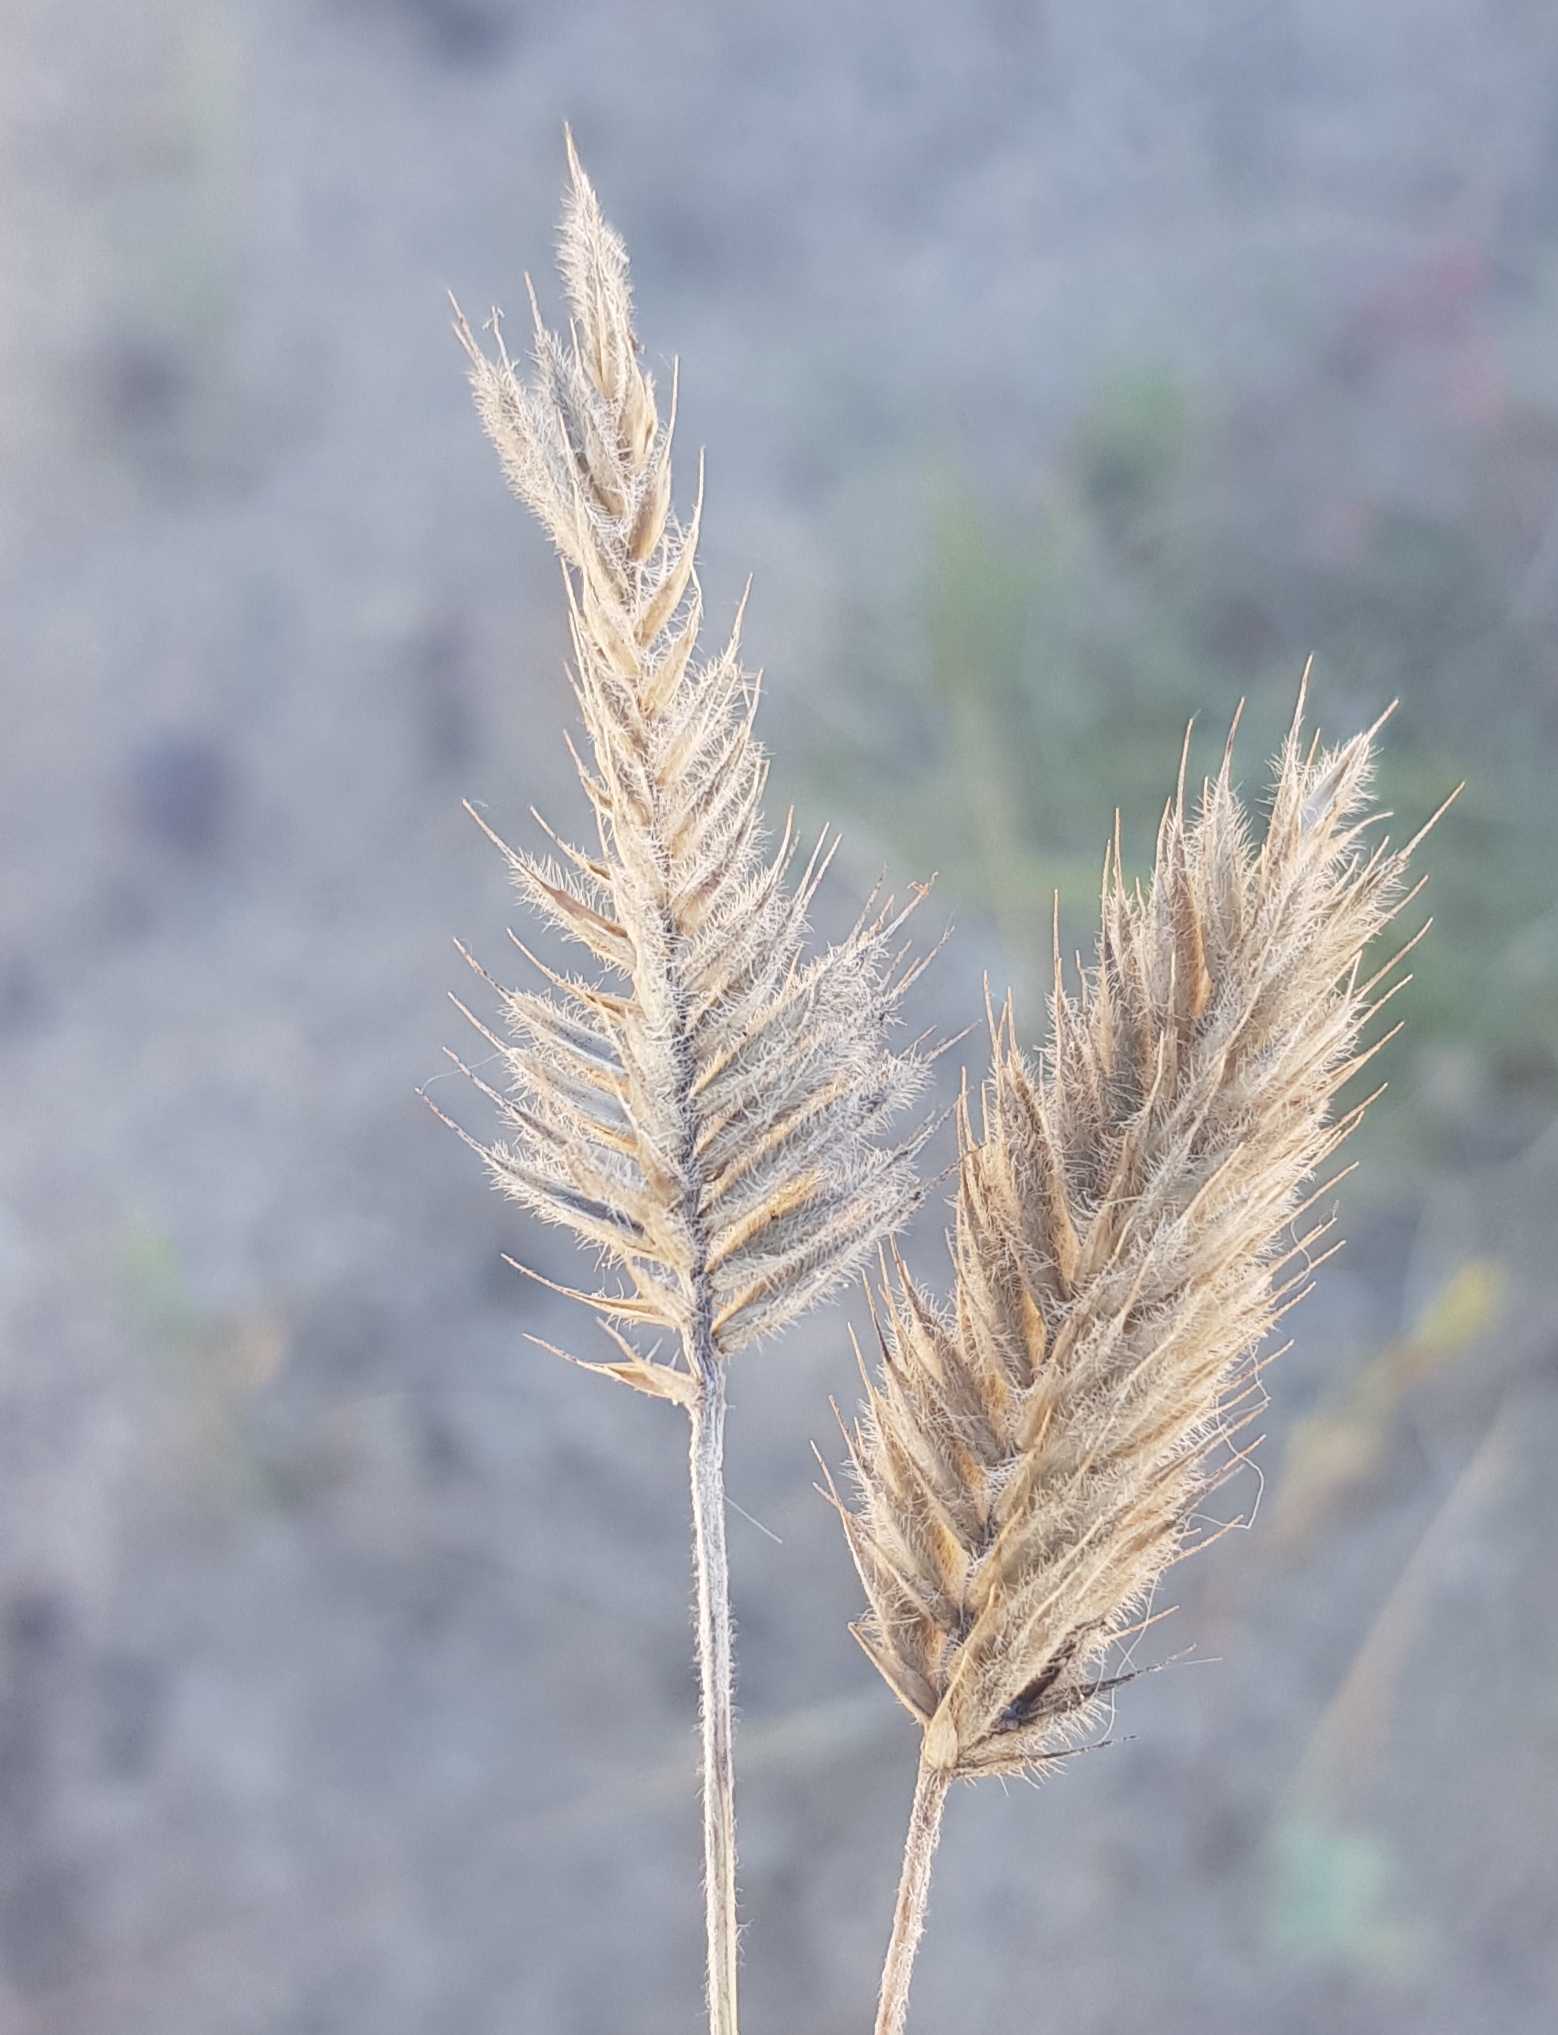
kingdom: Plantae
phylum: Tracheophyta
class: Liliopsida
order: Poales
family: Poaceae
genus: Agropyron
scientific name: Agropyron cristatum
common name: Crested wheatgrass
